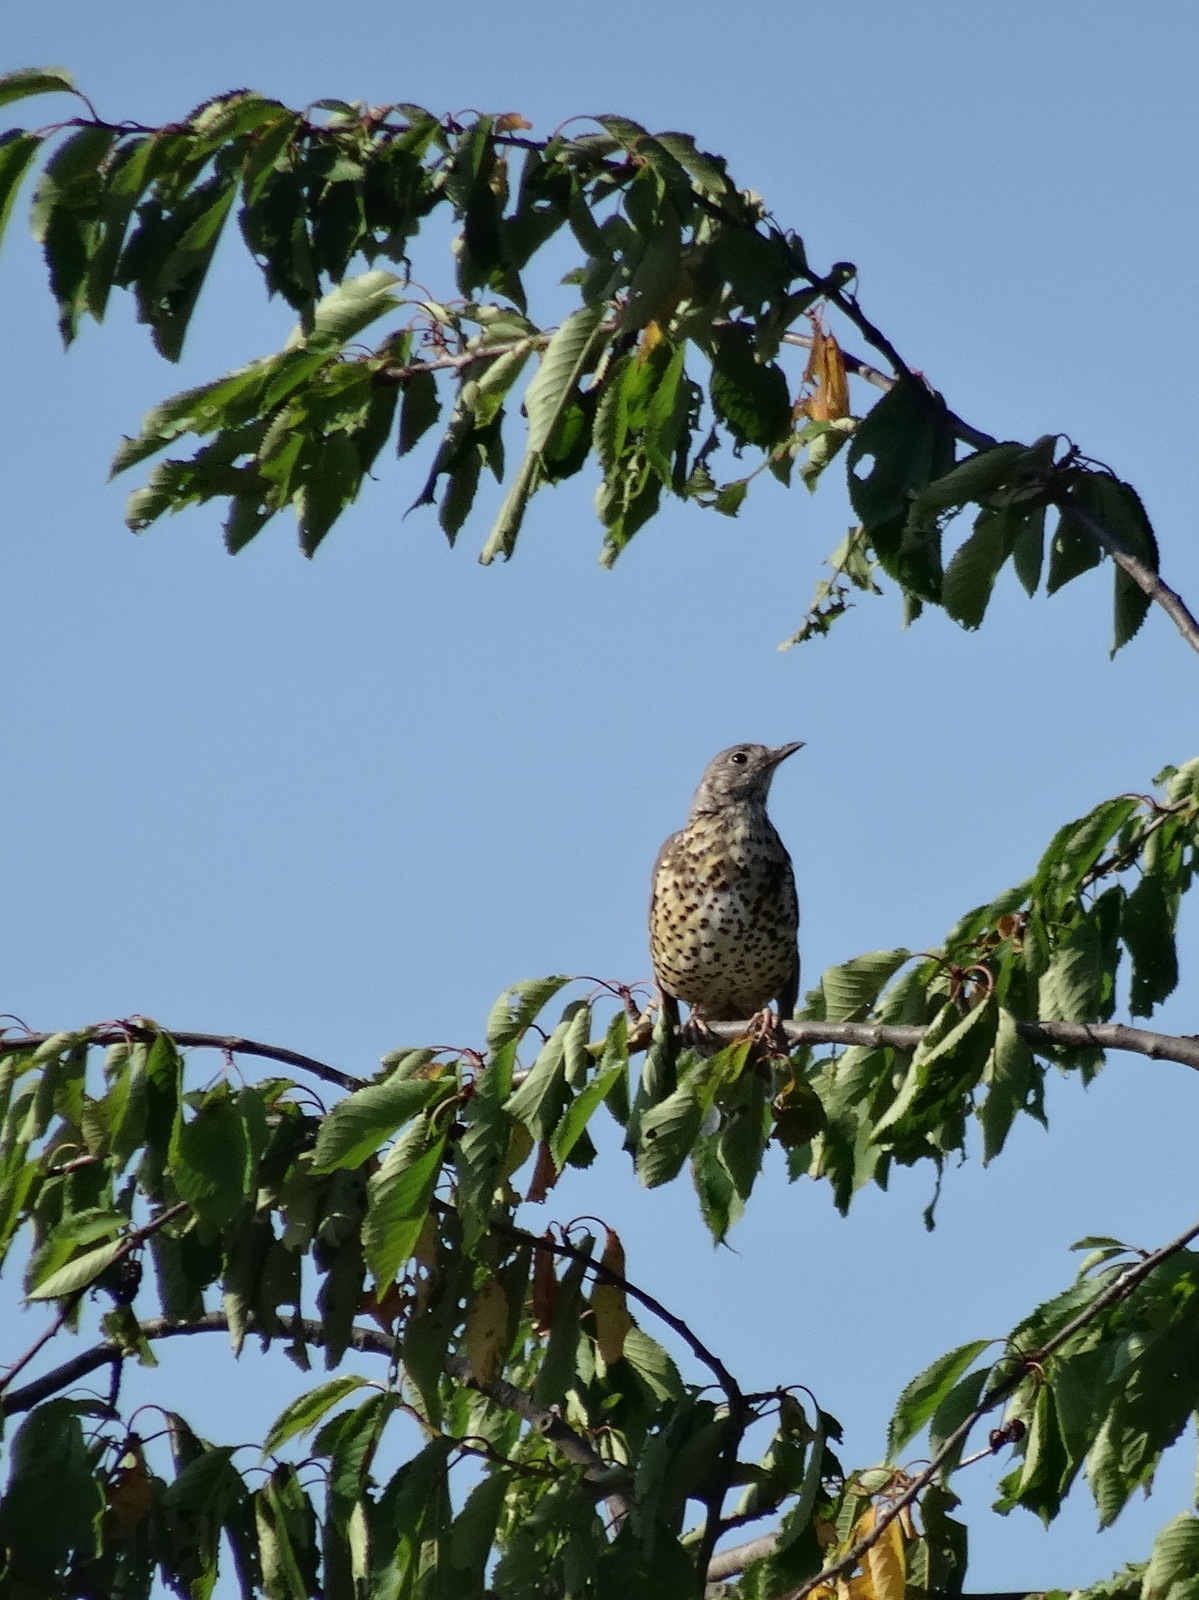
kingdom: Animalia
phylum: Chordata
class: Aves
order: Passeriformes
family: Turdidae
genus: Turdus
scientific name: Turdus viscivorus
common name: Mistle thrush
